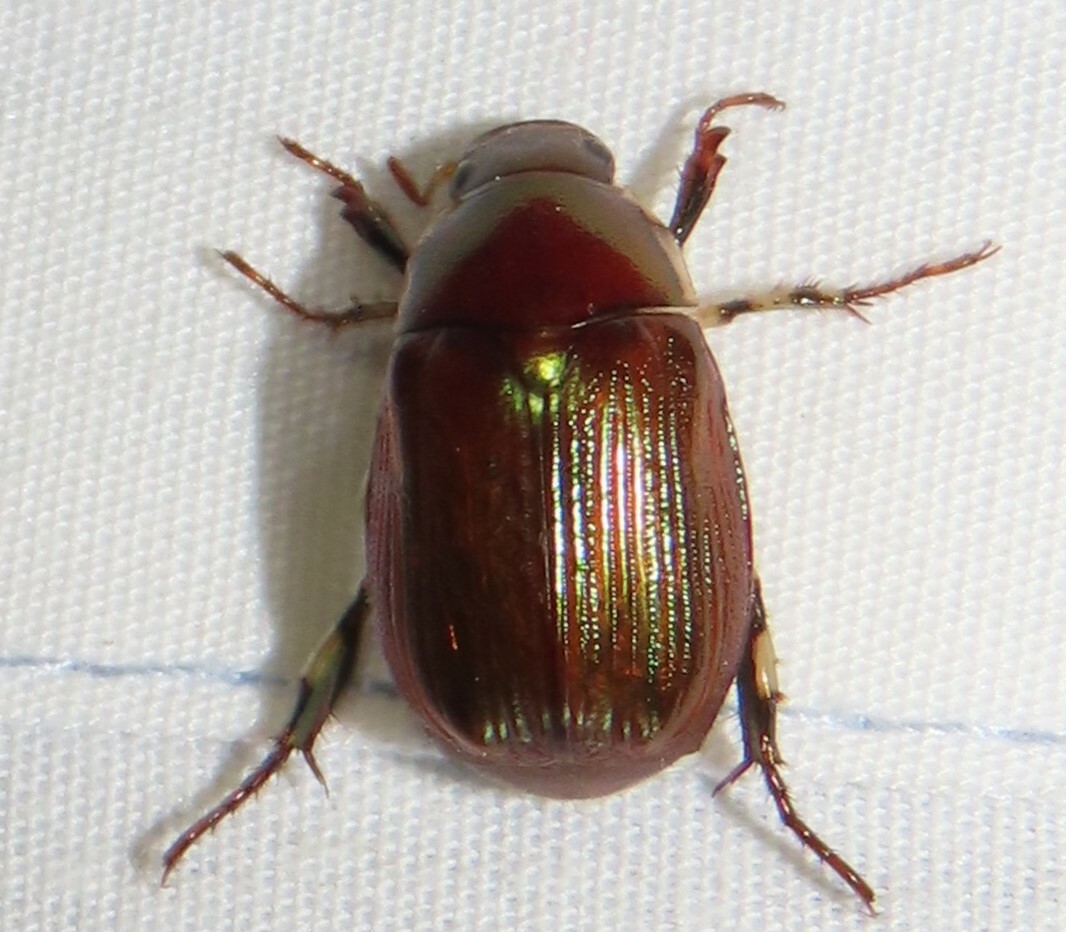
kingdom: Animalia
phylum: Arthropoda
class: Insecta
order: Coleoptera
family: Scarabaeidae
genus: Callistethus
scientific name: Callistethus marginatus
